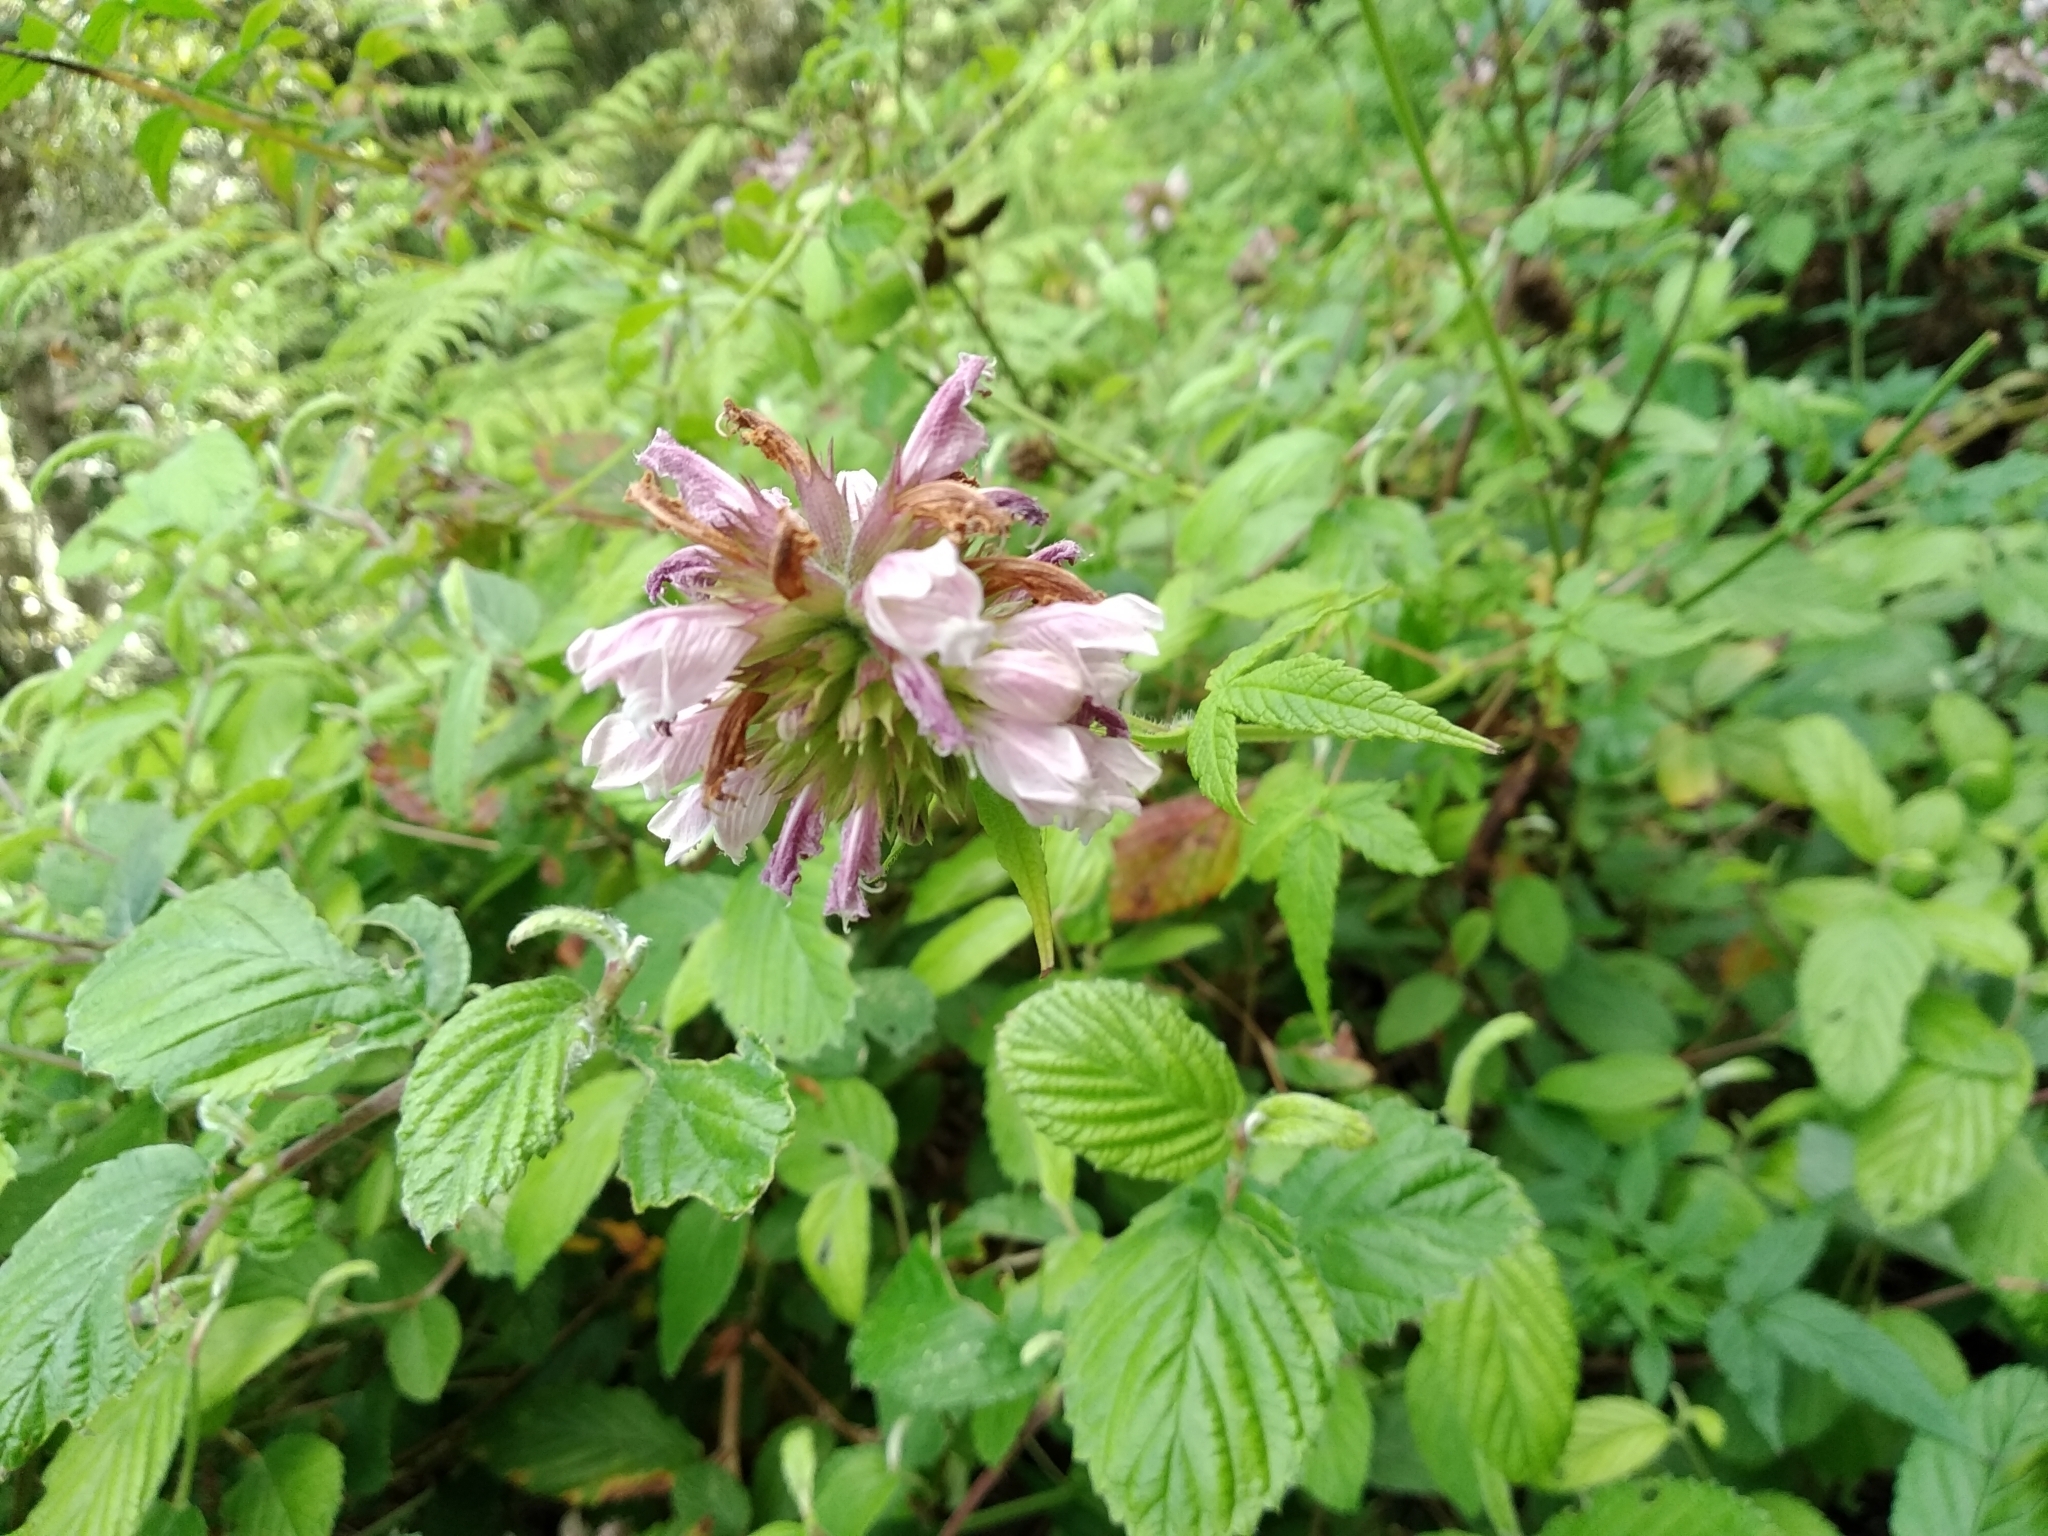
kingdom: Plantae
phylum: Tracheophyta
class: Magnoliopsida
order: Lamiales
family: Lamiaceae
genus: Cedronella
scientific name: Cedronella canariensis
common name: Canary islands balm
